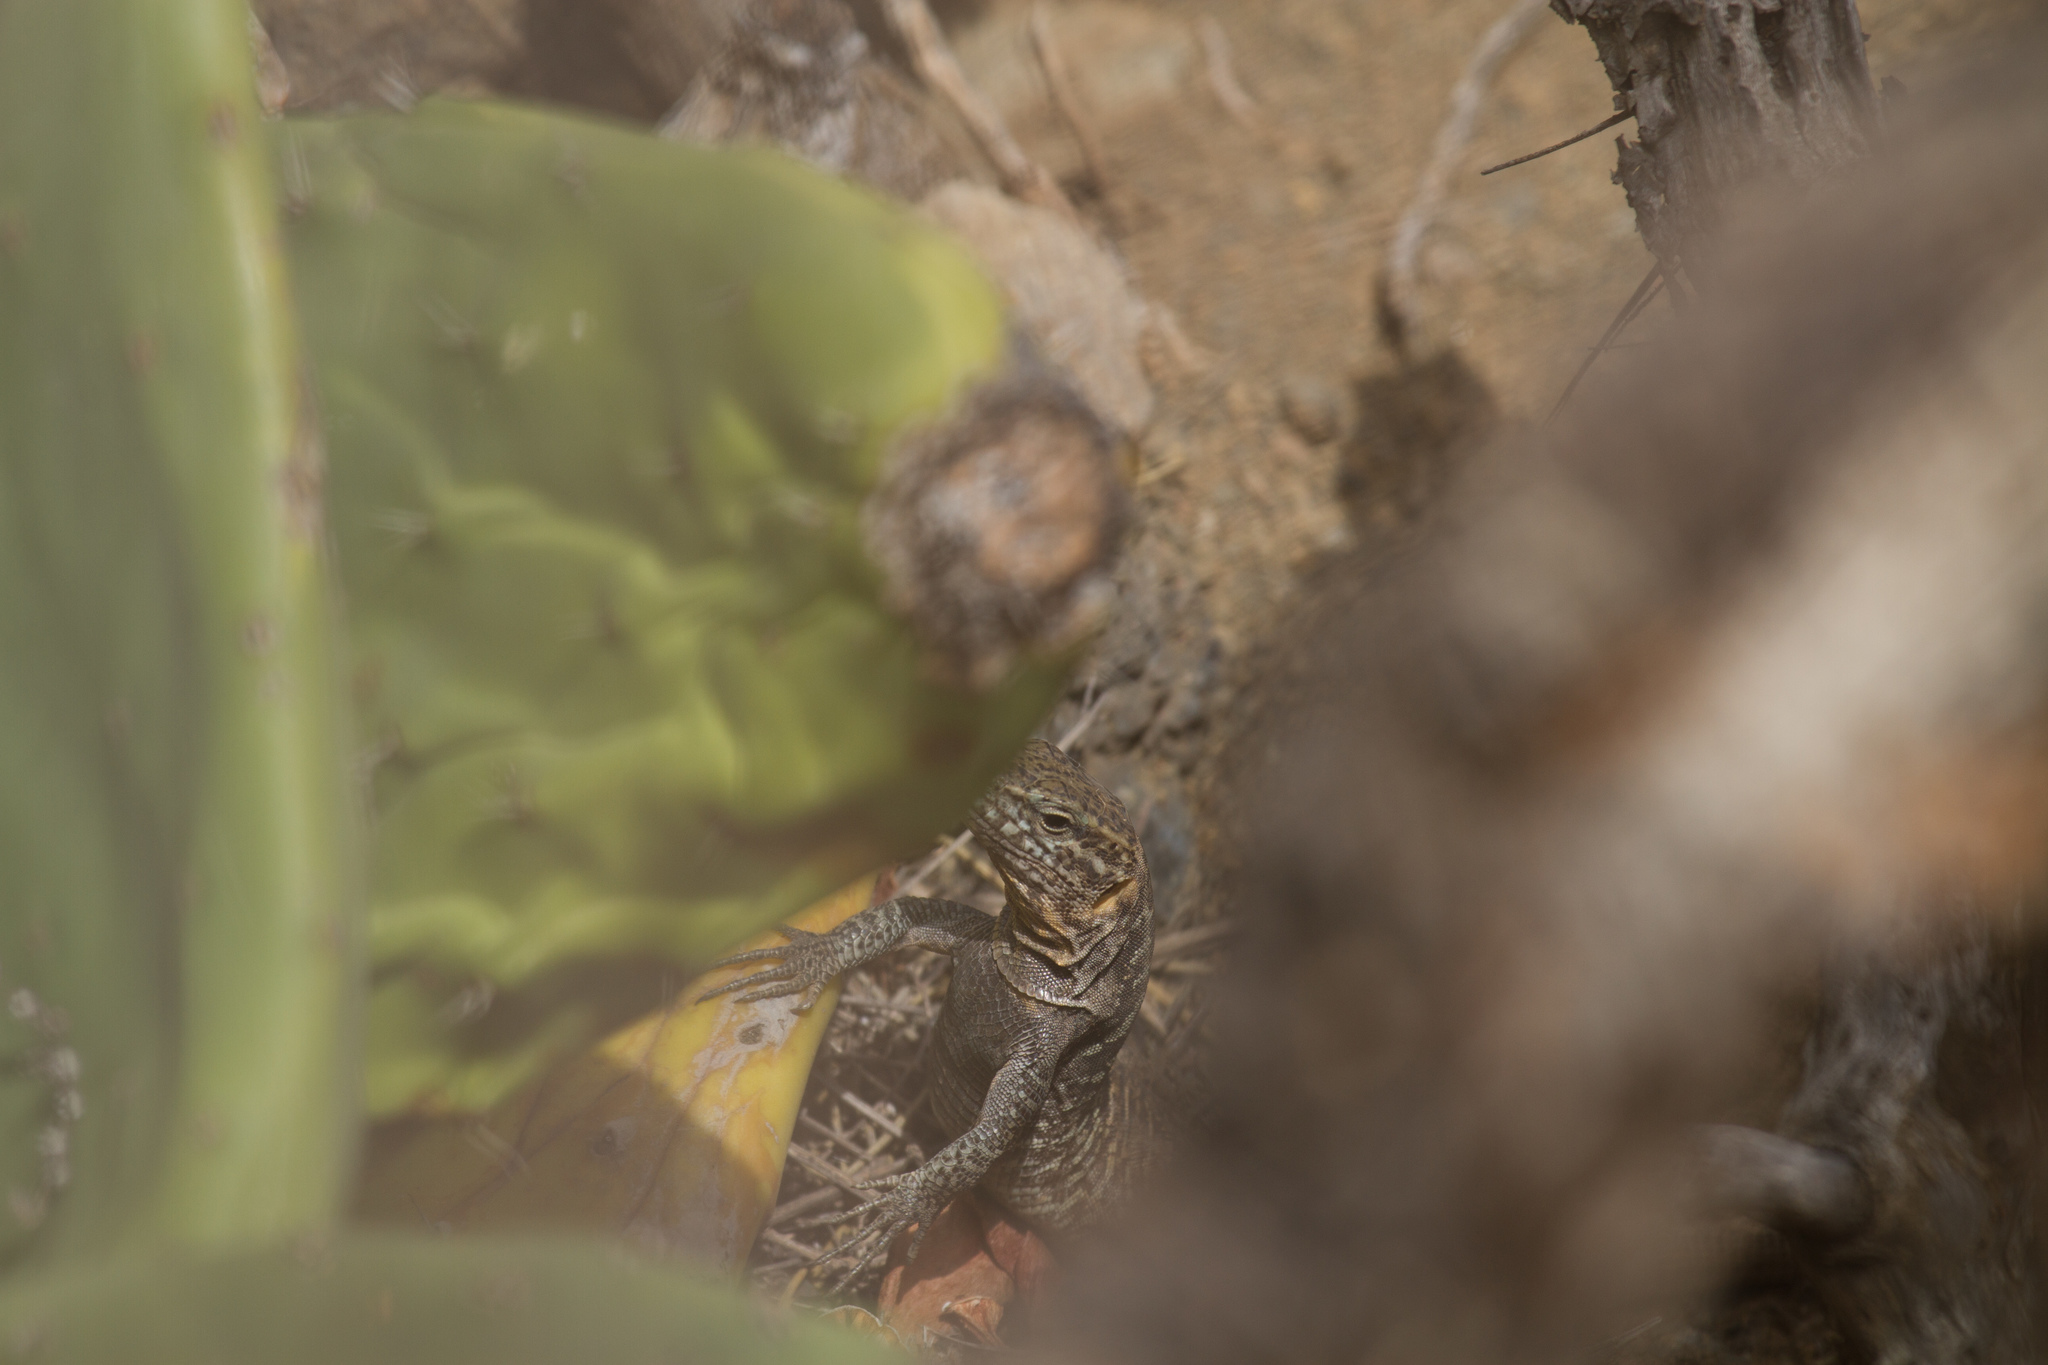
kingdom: Animalia
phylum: Chordata
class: Squamata
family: Lacertidae
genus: Gallotia
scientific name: Gallotia stehlini
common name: Gran canaria giant lizard
